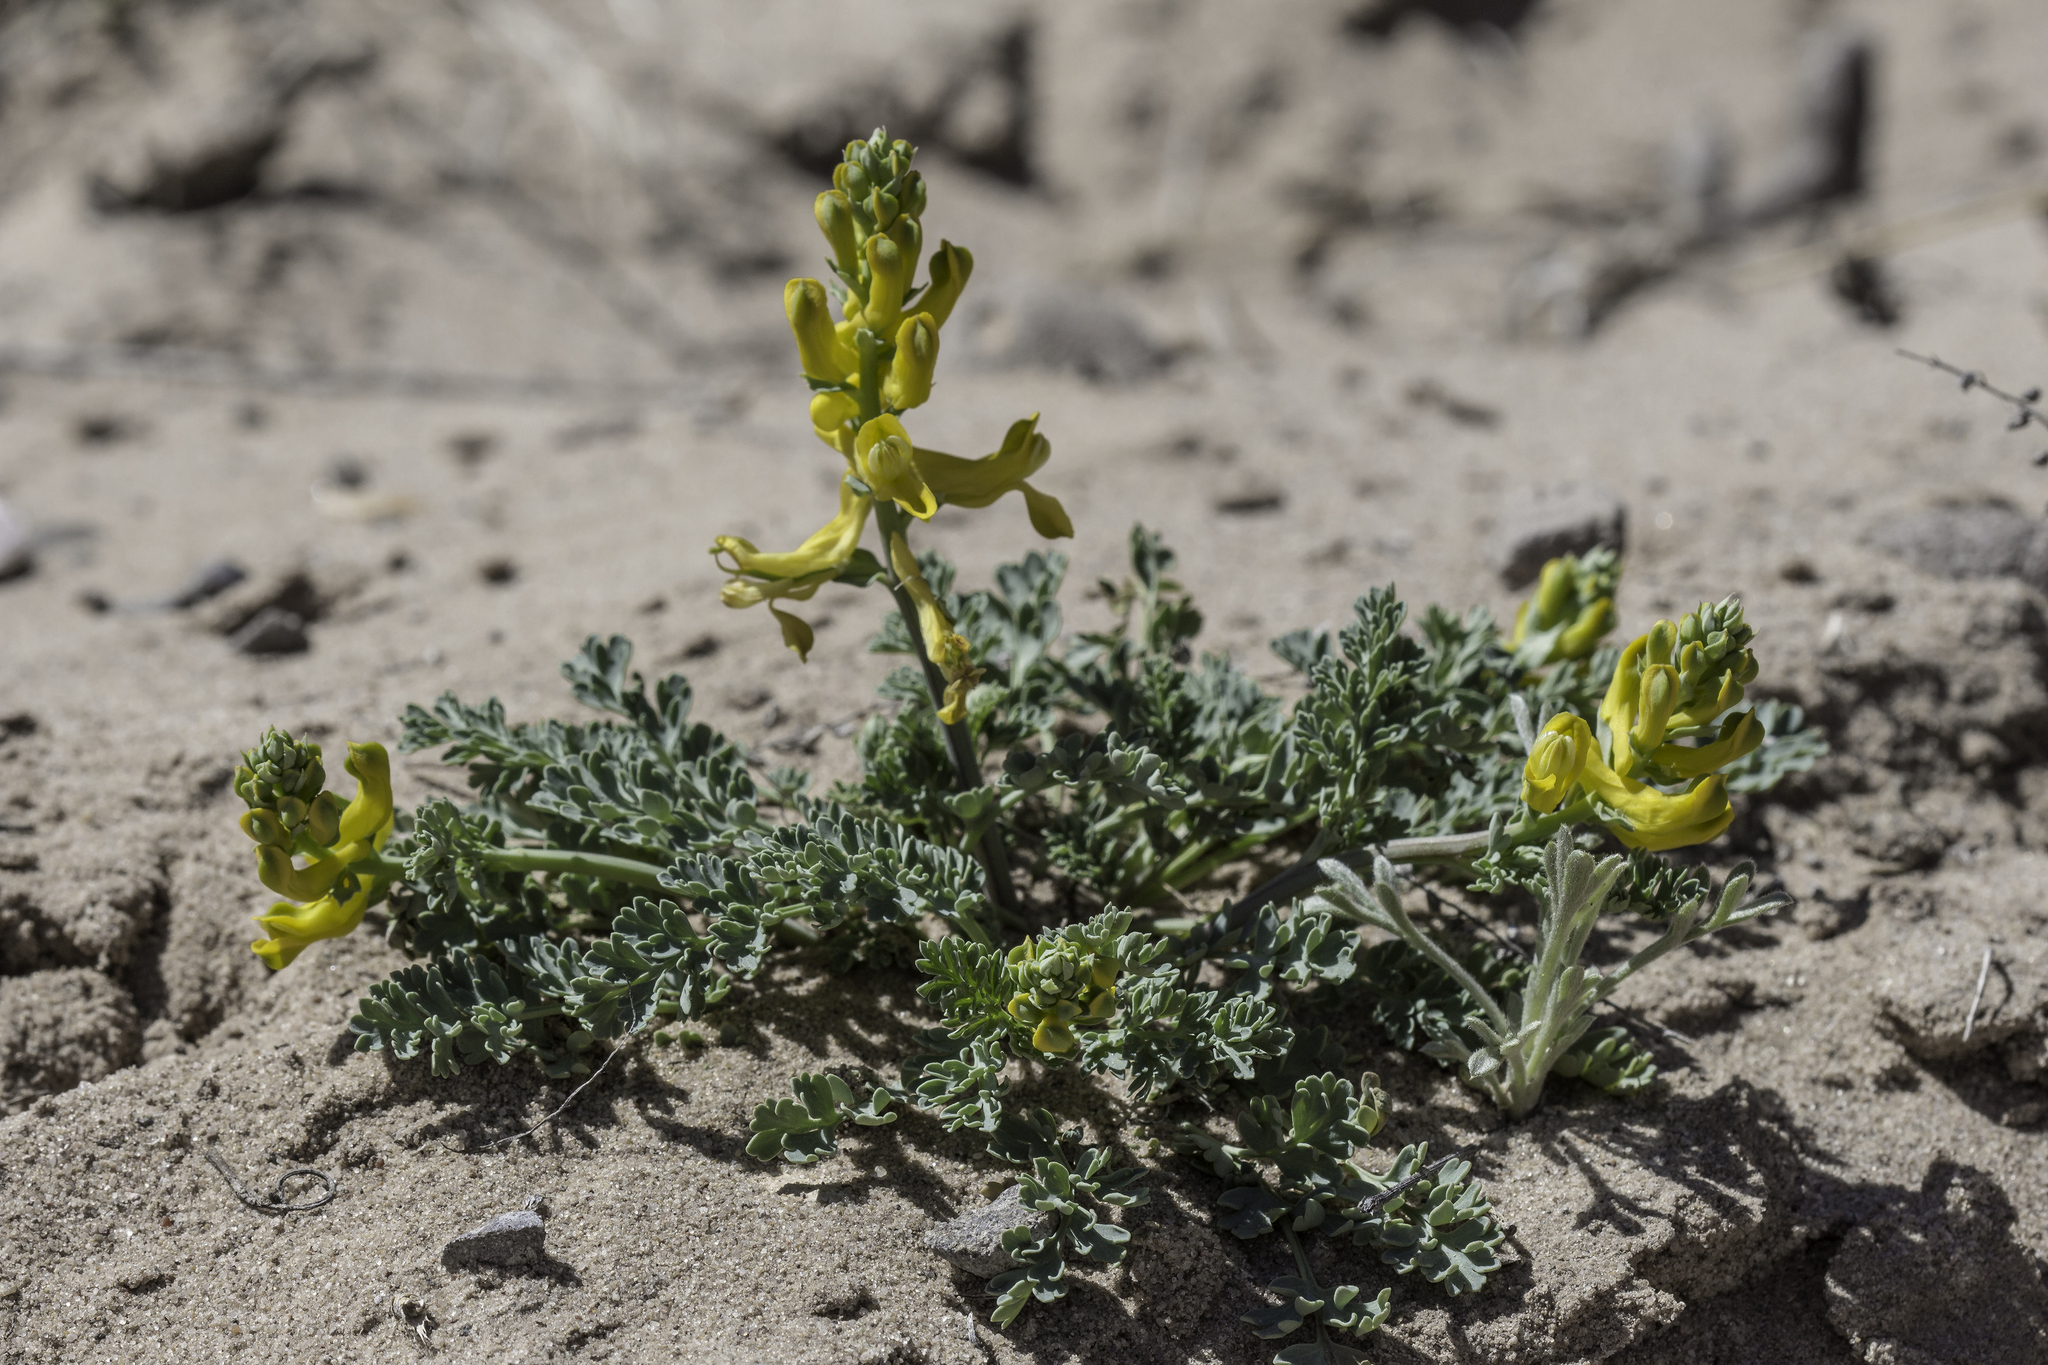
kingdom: Plantae
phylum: Tracheophyta
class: Magnoliopsida
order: Ranunculales
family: Papaveraceae
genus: Corydalis
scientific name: Corydalis aurea
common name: Golden corydalis
